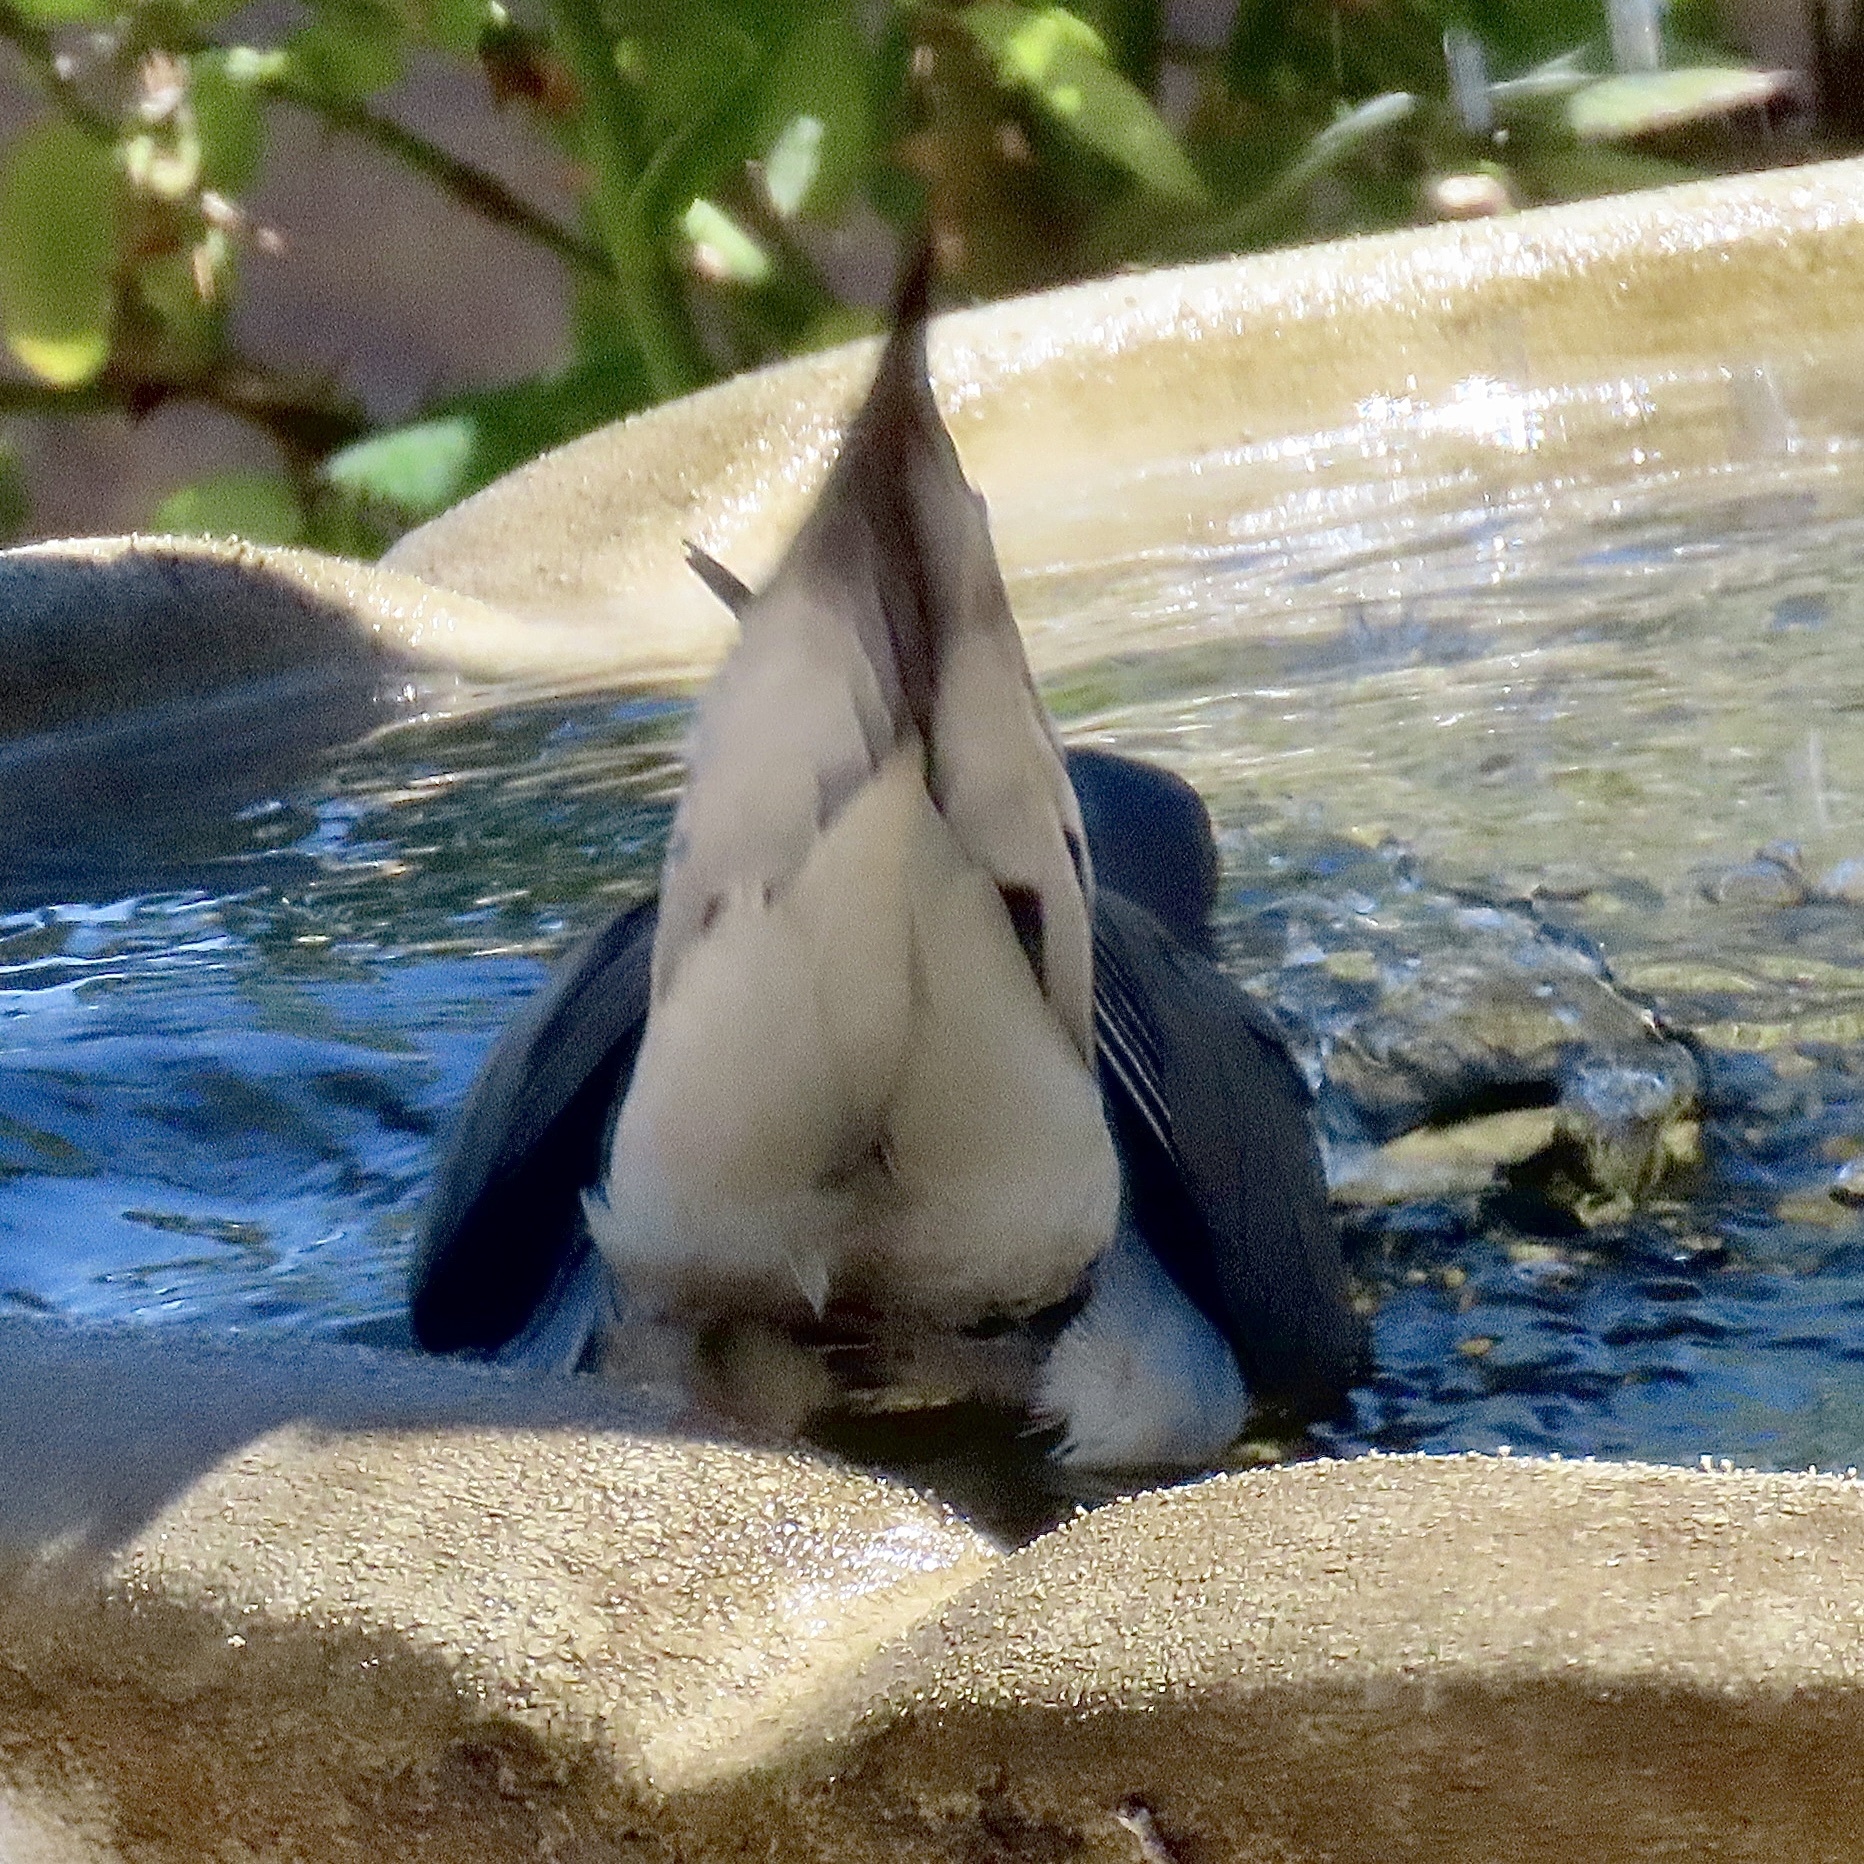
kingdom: Animalia
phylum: Chordata
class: Aves
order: Columbiformes
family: Columbidae
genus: Zenaida
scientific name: Zenaida macroura
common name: Mourning dove
